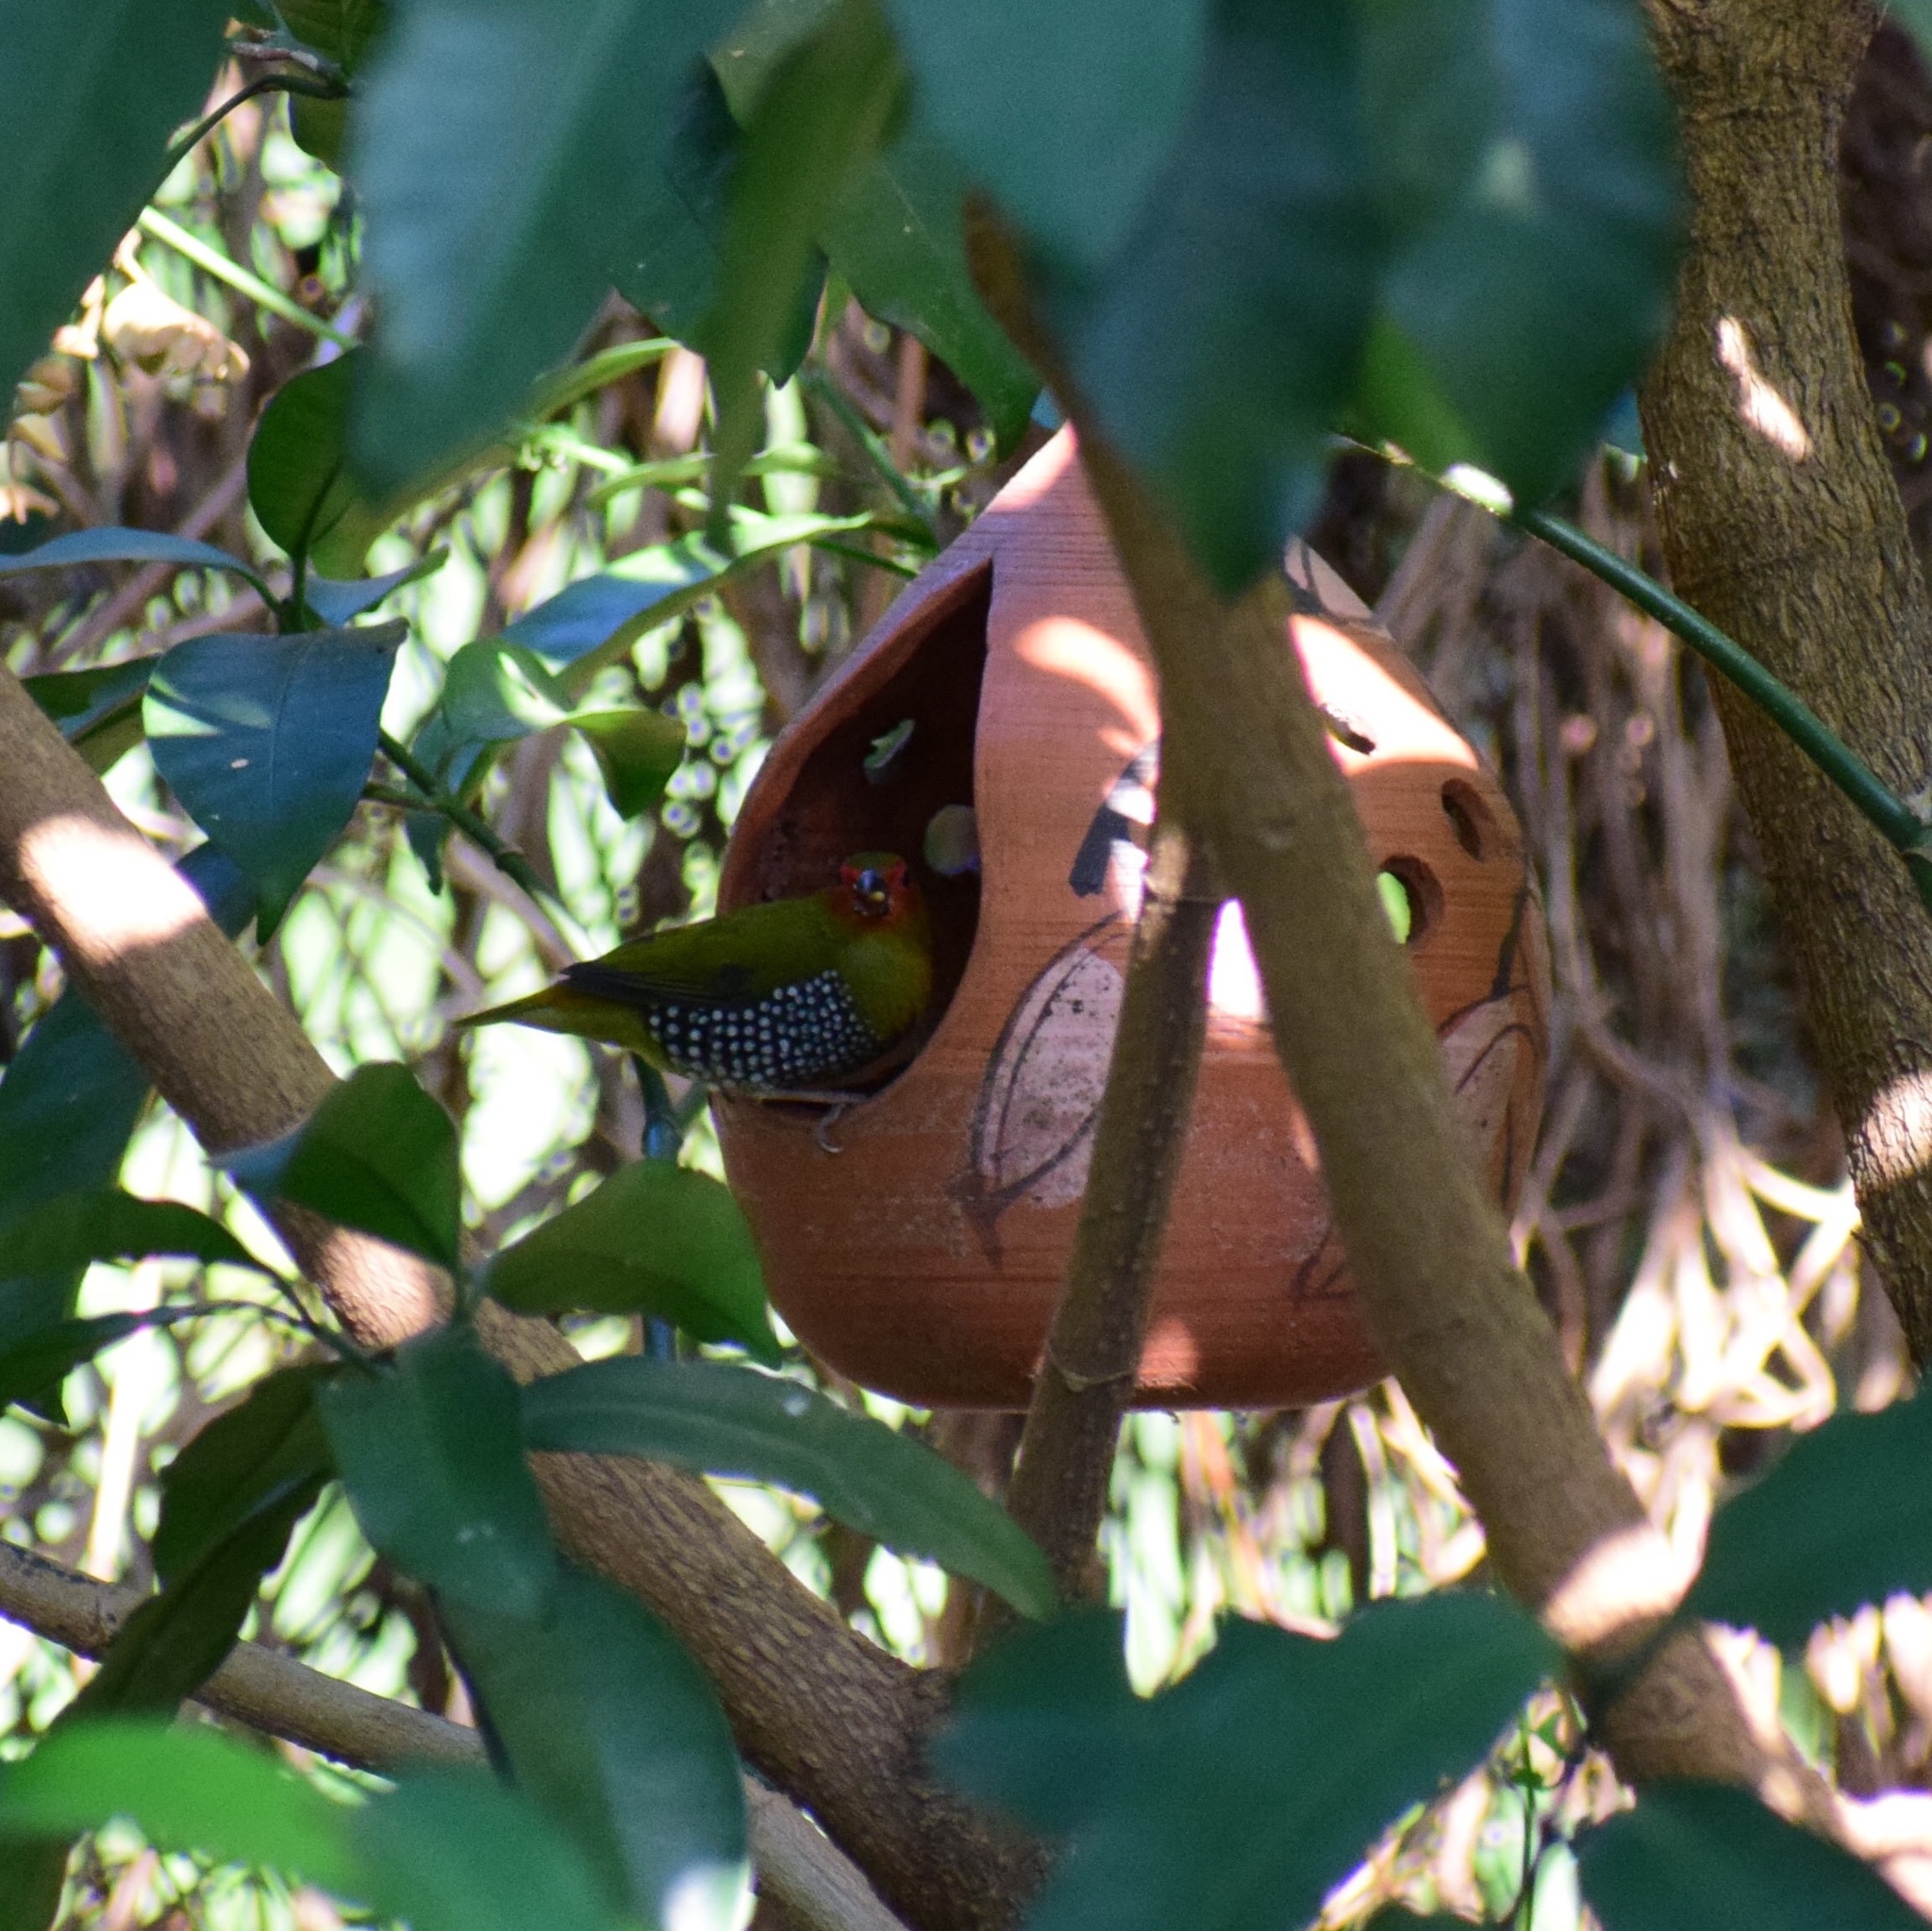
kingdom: Animalia
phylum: Chordata
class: Aves
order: Passeriformes
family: Estrildidae
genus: Mandingoa
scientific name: Mandingoa nitidula
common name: Green twinspot
